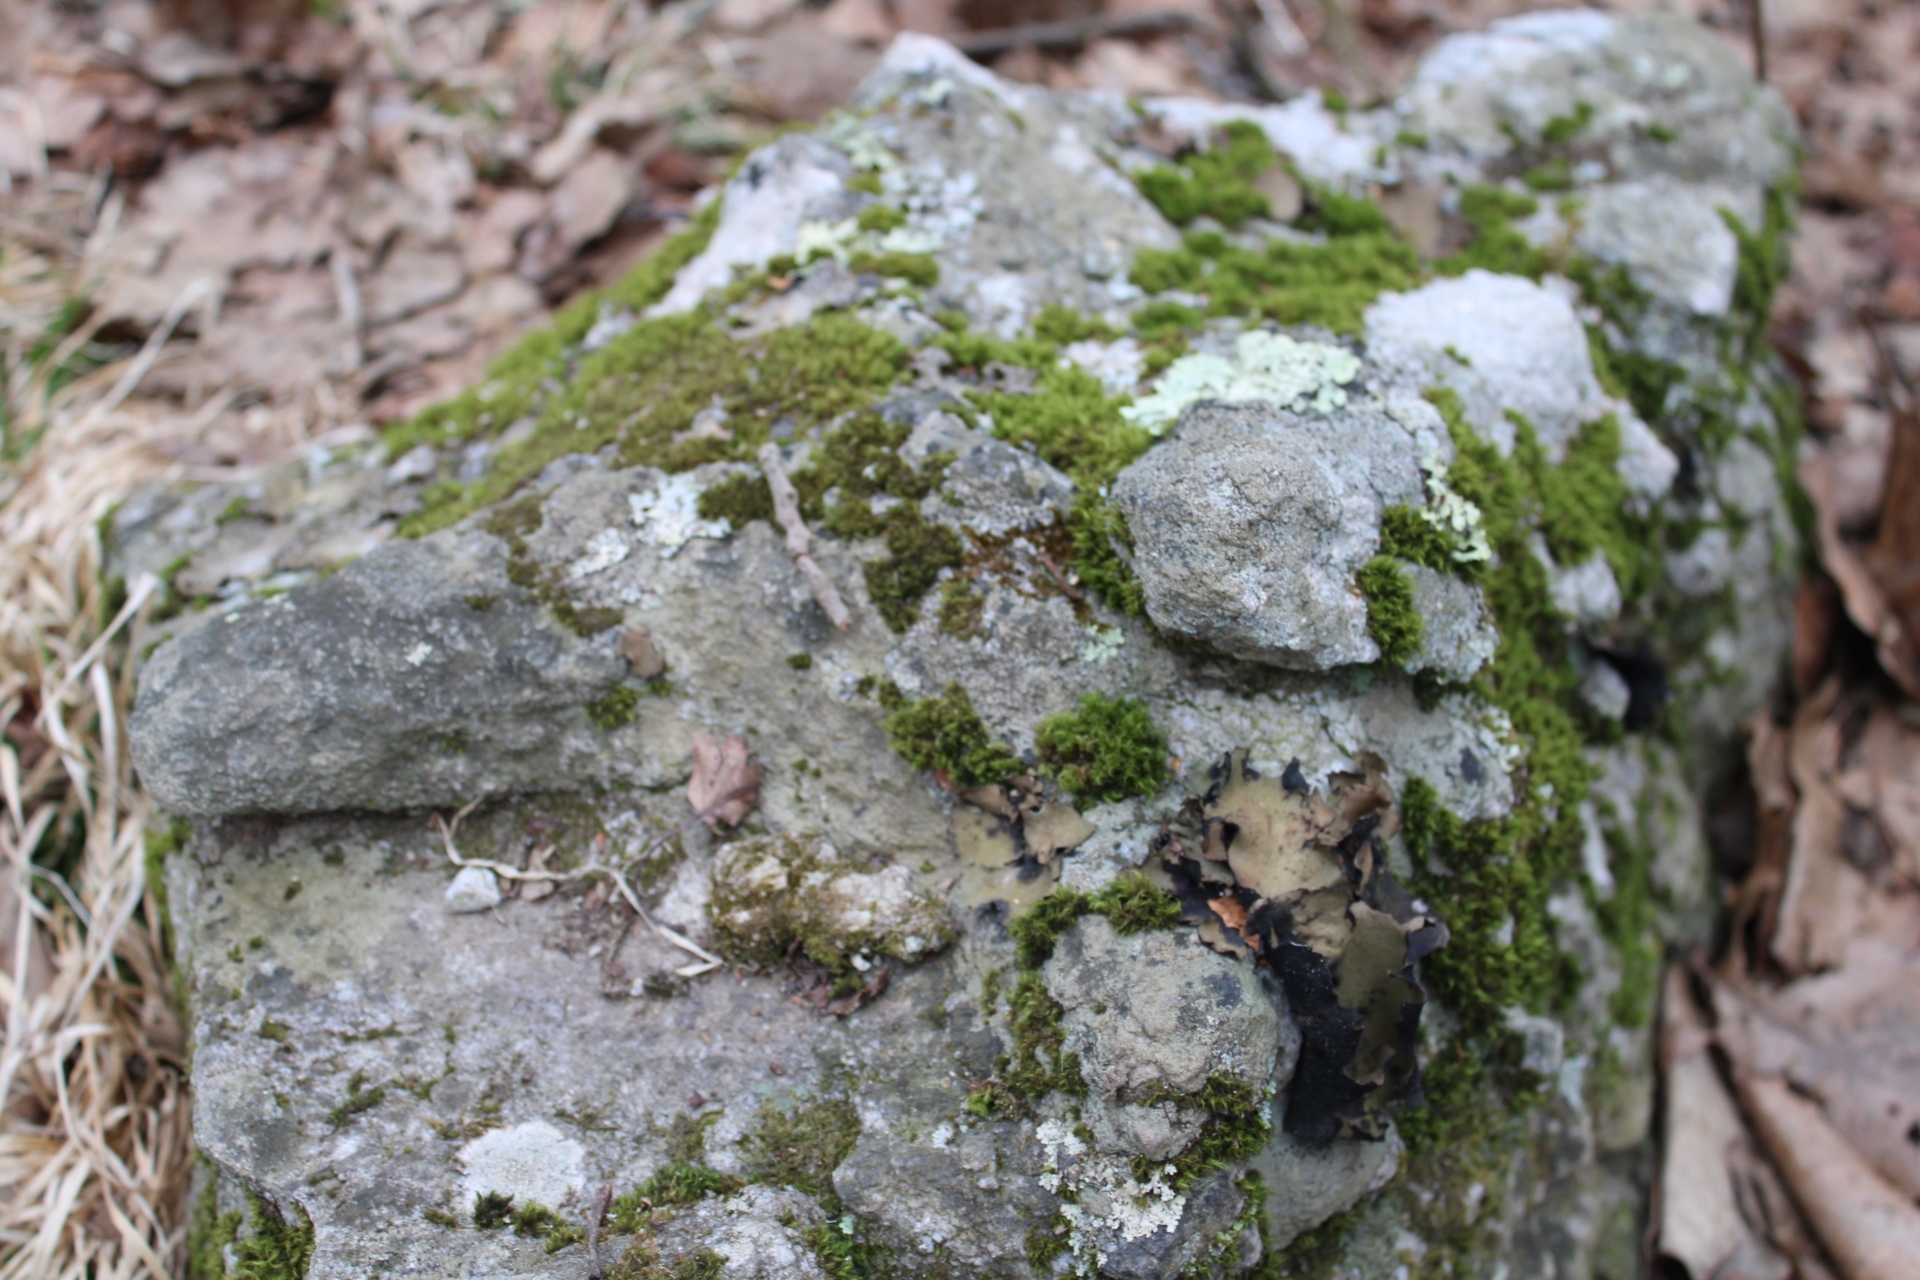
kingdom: Fungi
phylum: Ascomycota
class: Lecanoromycetes
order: Umbilicariales
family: Umbilicariaceae
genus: Umbilicaria
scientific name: Umbilicaria mammulata
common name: Smooth rock tripe
